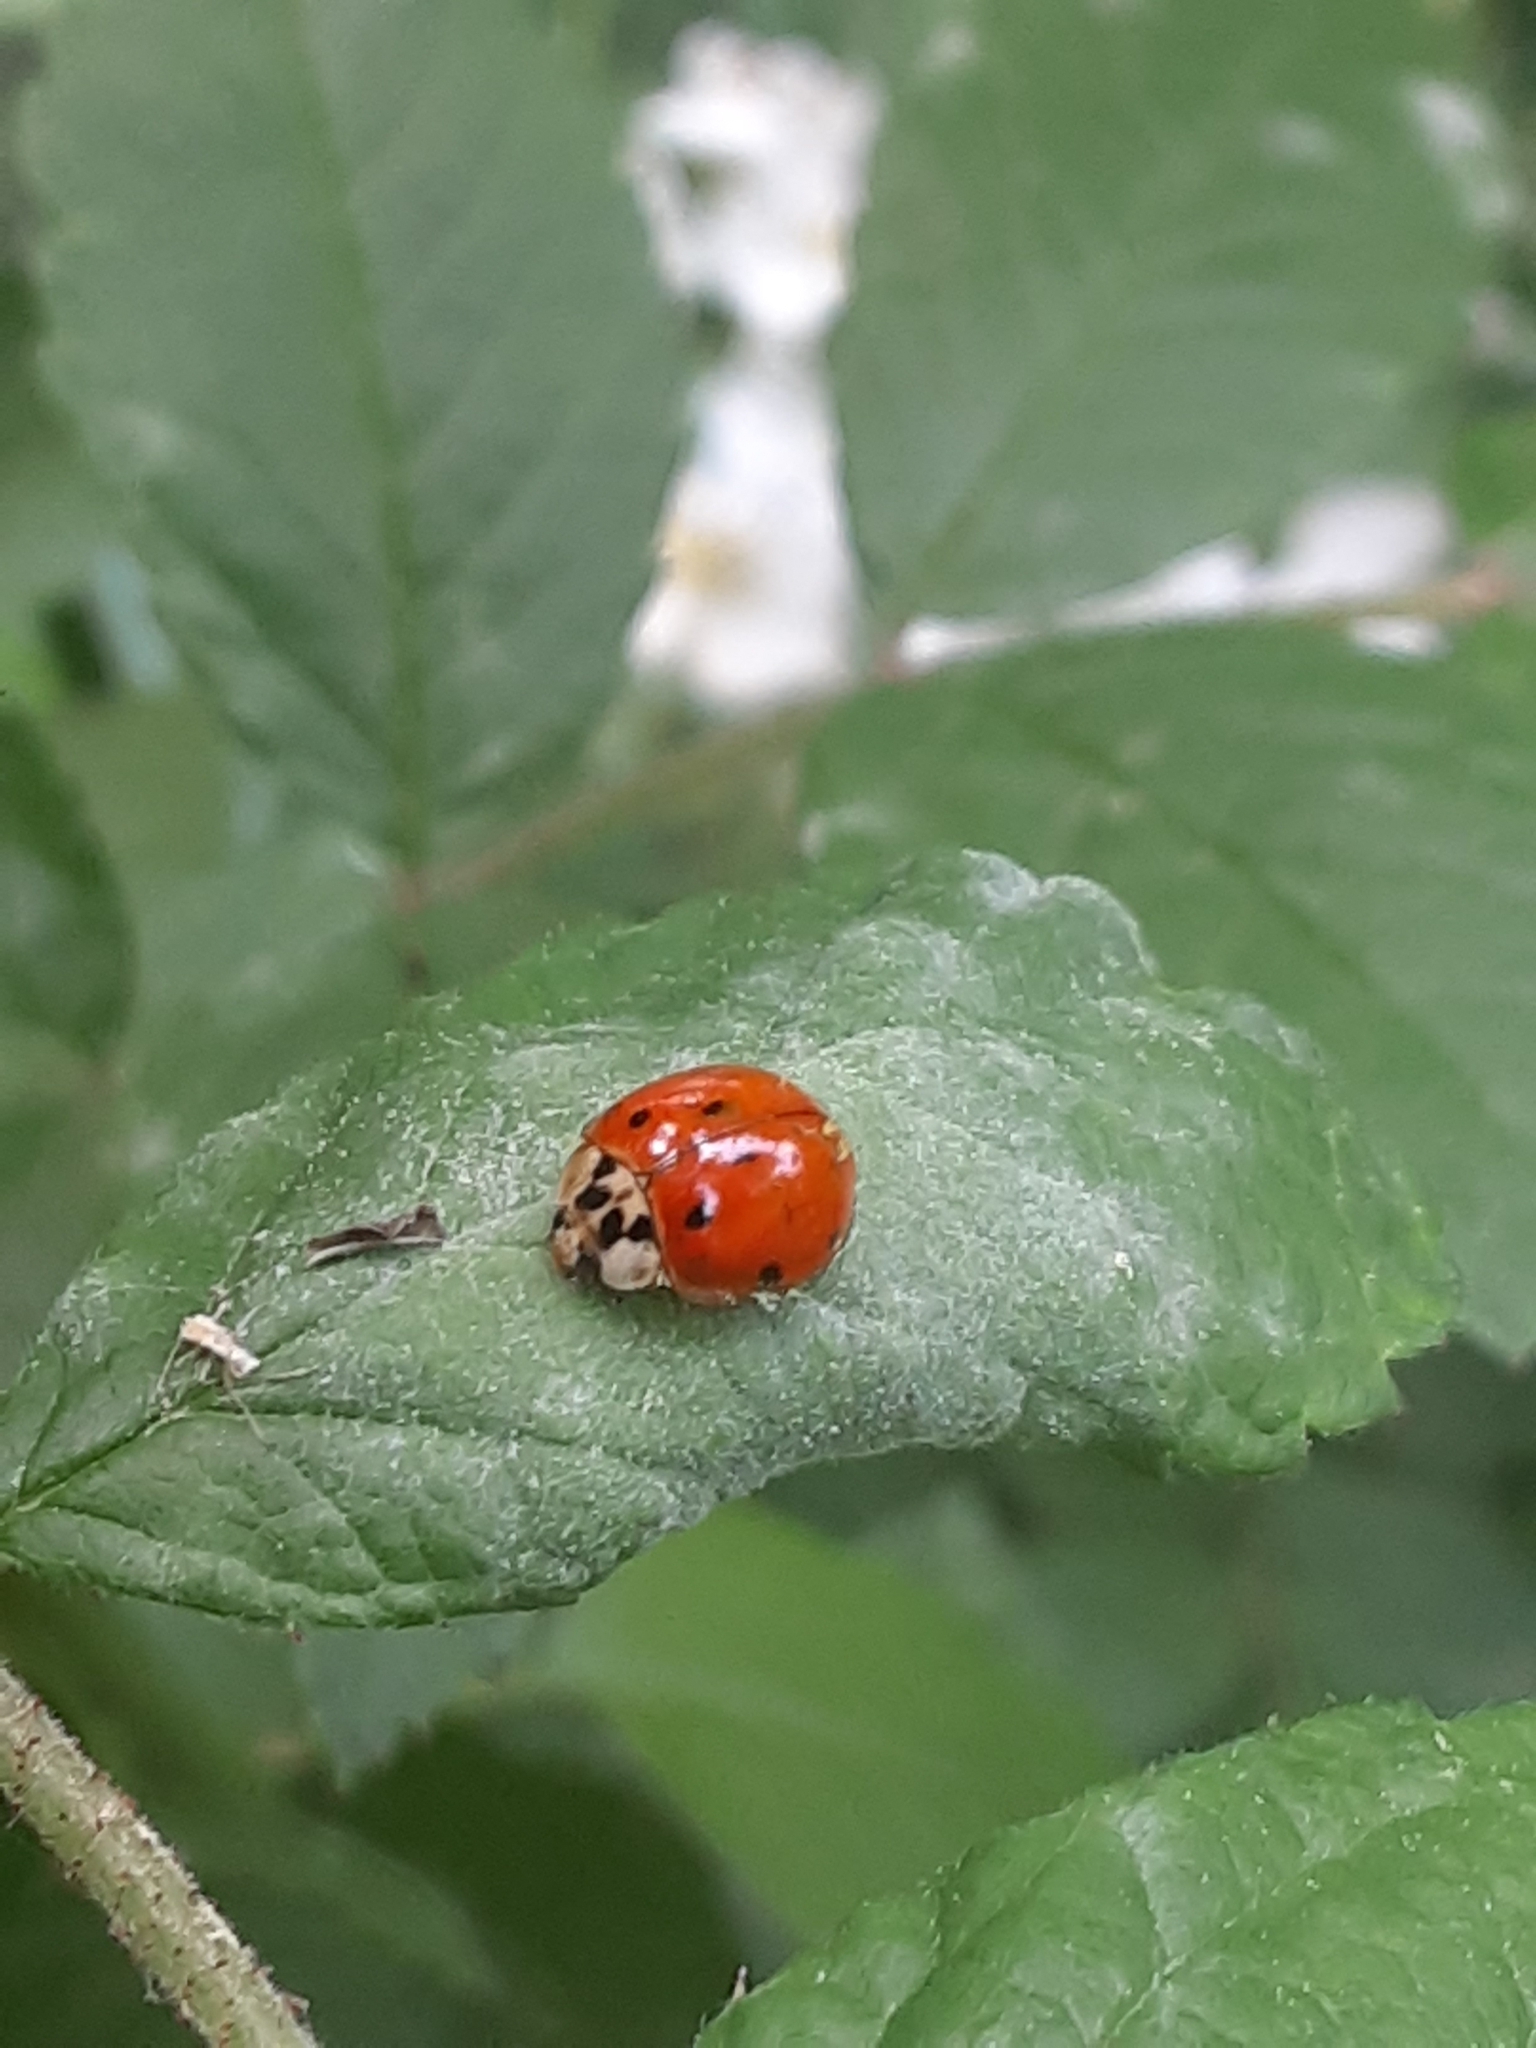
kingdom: Animalia
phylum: Arthropoda
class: Insecta
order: Coleoptera
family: Coccinellidae
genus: Harmonia
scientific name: Harmonia axyridis
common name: Harlequin ladybird
